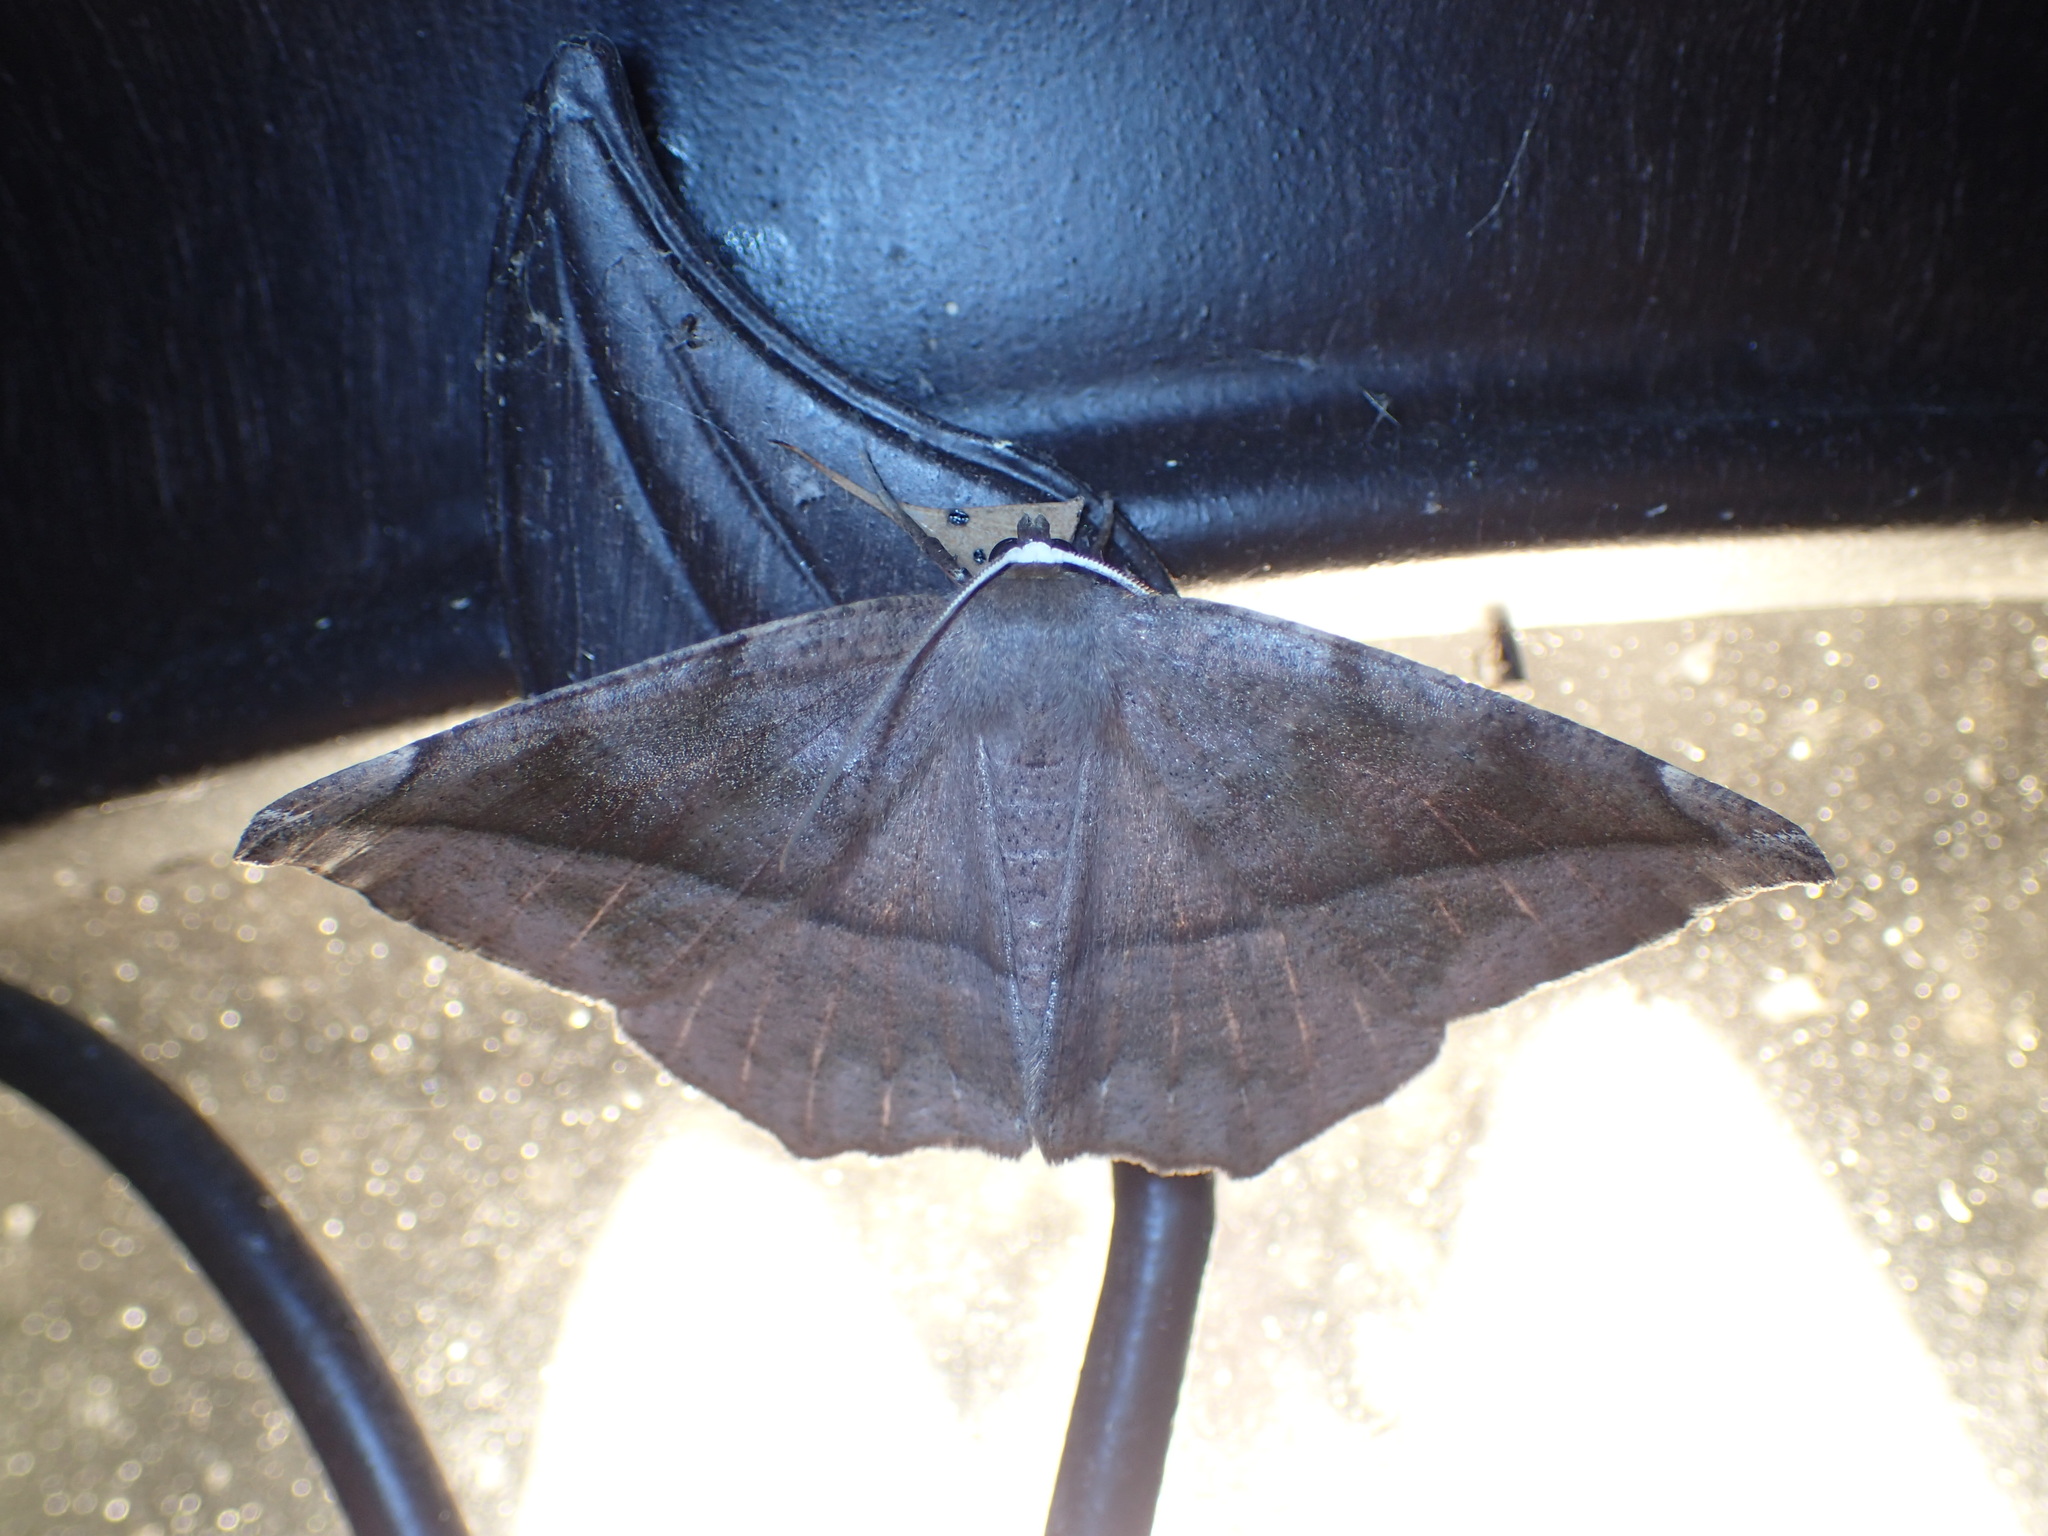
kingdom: Animalia
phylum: Arthropoda
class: Insecta
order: Lepidoptera
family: Geometridae
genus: Eutrapela
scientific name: Eutrapela clemataria
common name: Curved-toothed geometer
